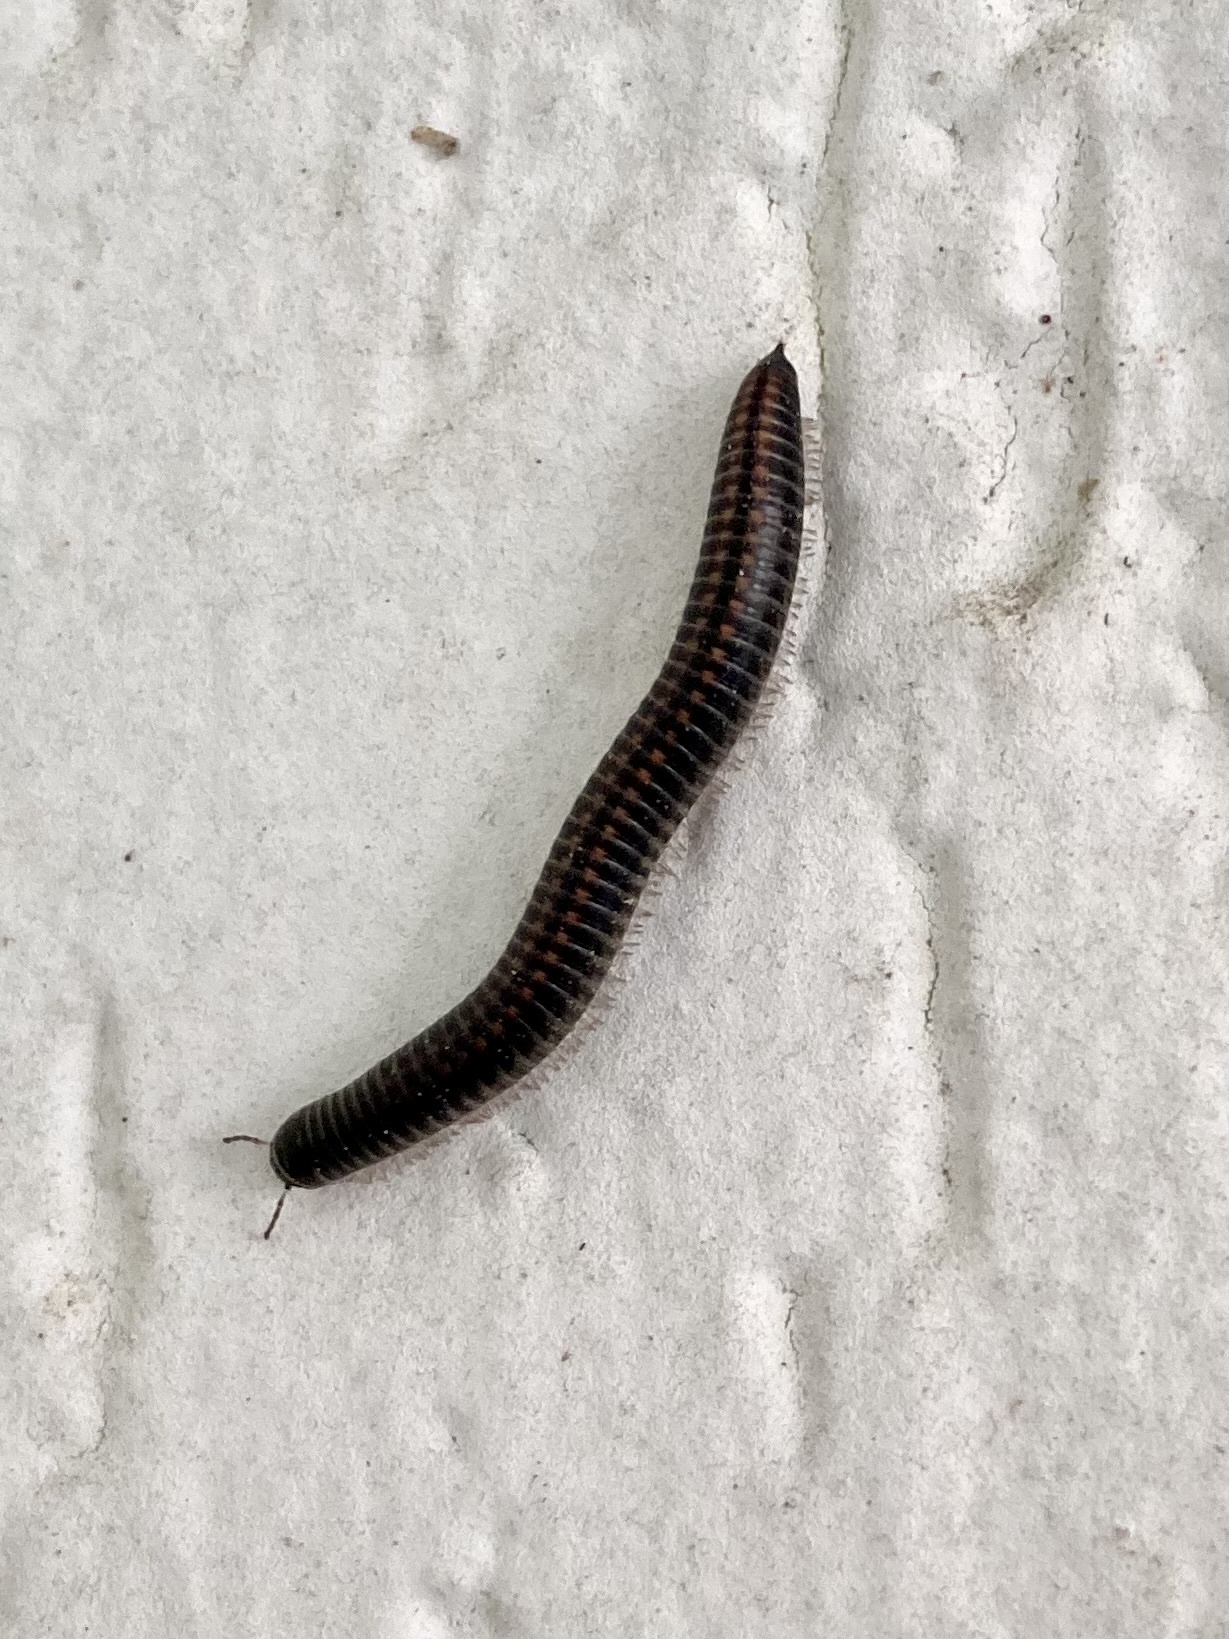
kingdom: Animalia
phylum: Arthropoda
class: Diplopoda
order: Julida
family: Julidae
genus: Ommatoiulus
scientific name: Ommatoiulus sabulosus
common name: Striped millipede
